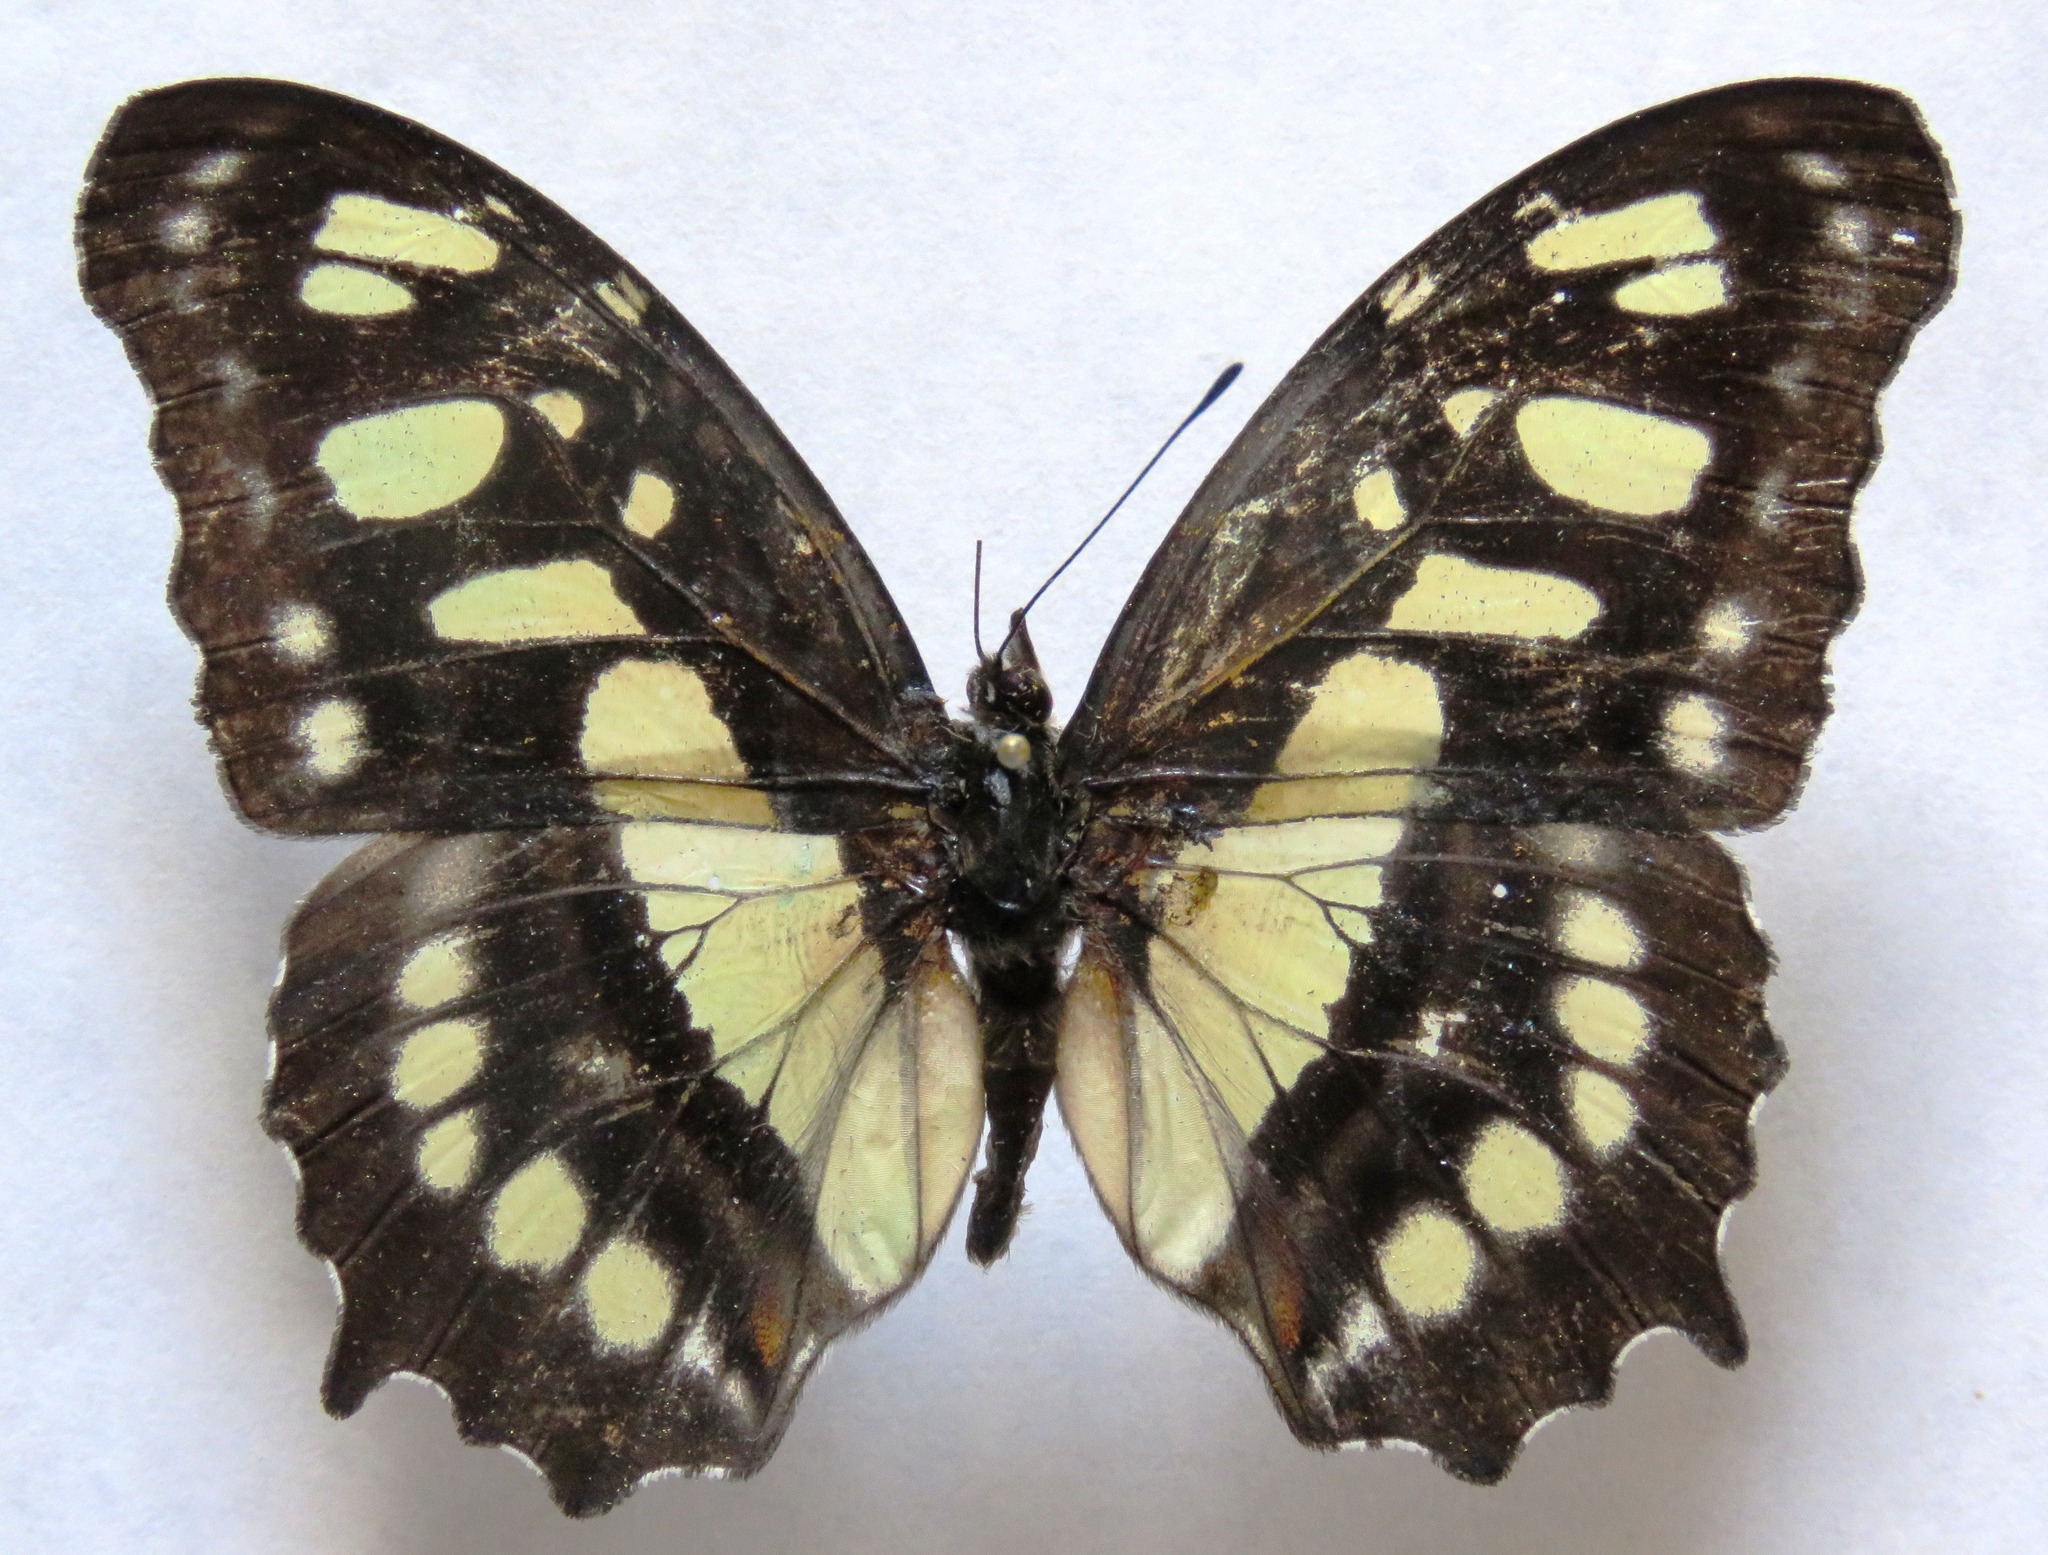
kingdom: Animalia
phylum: Arthropoda
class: Insecta
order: Lepidoptera
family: Nymphalidae
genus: Siproeta
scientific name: Siproeta stelenes
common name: Malachite
